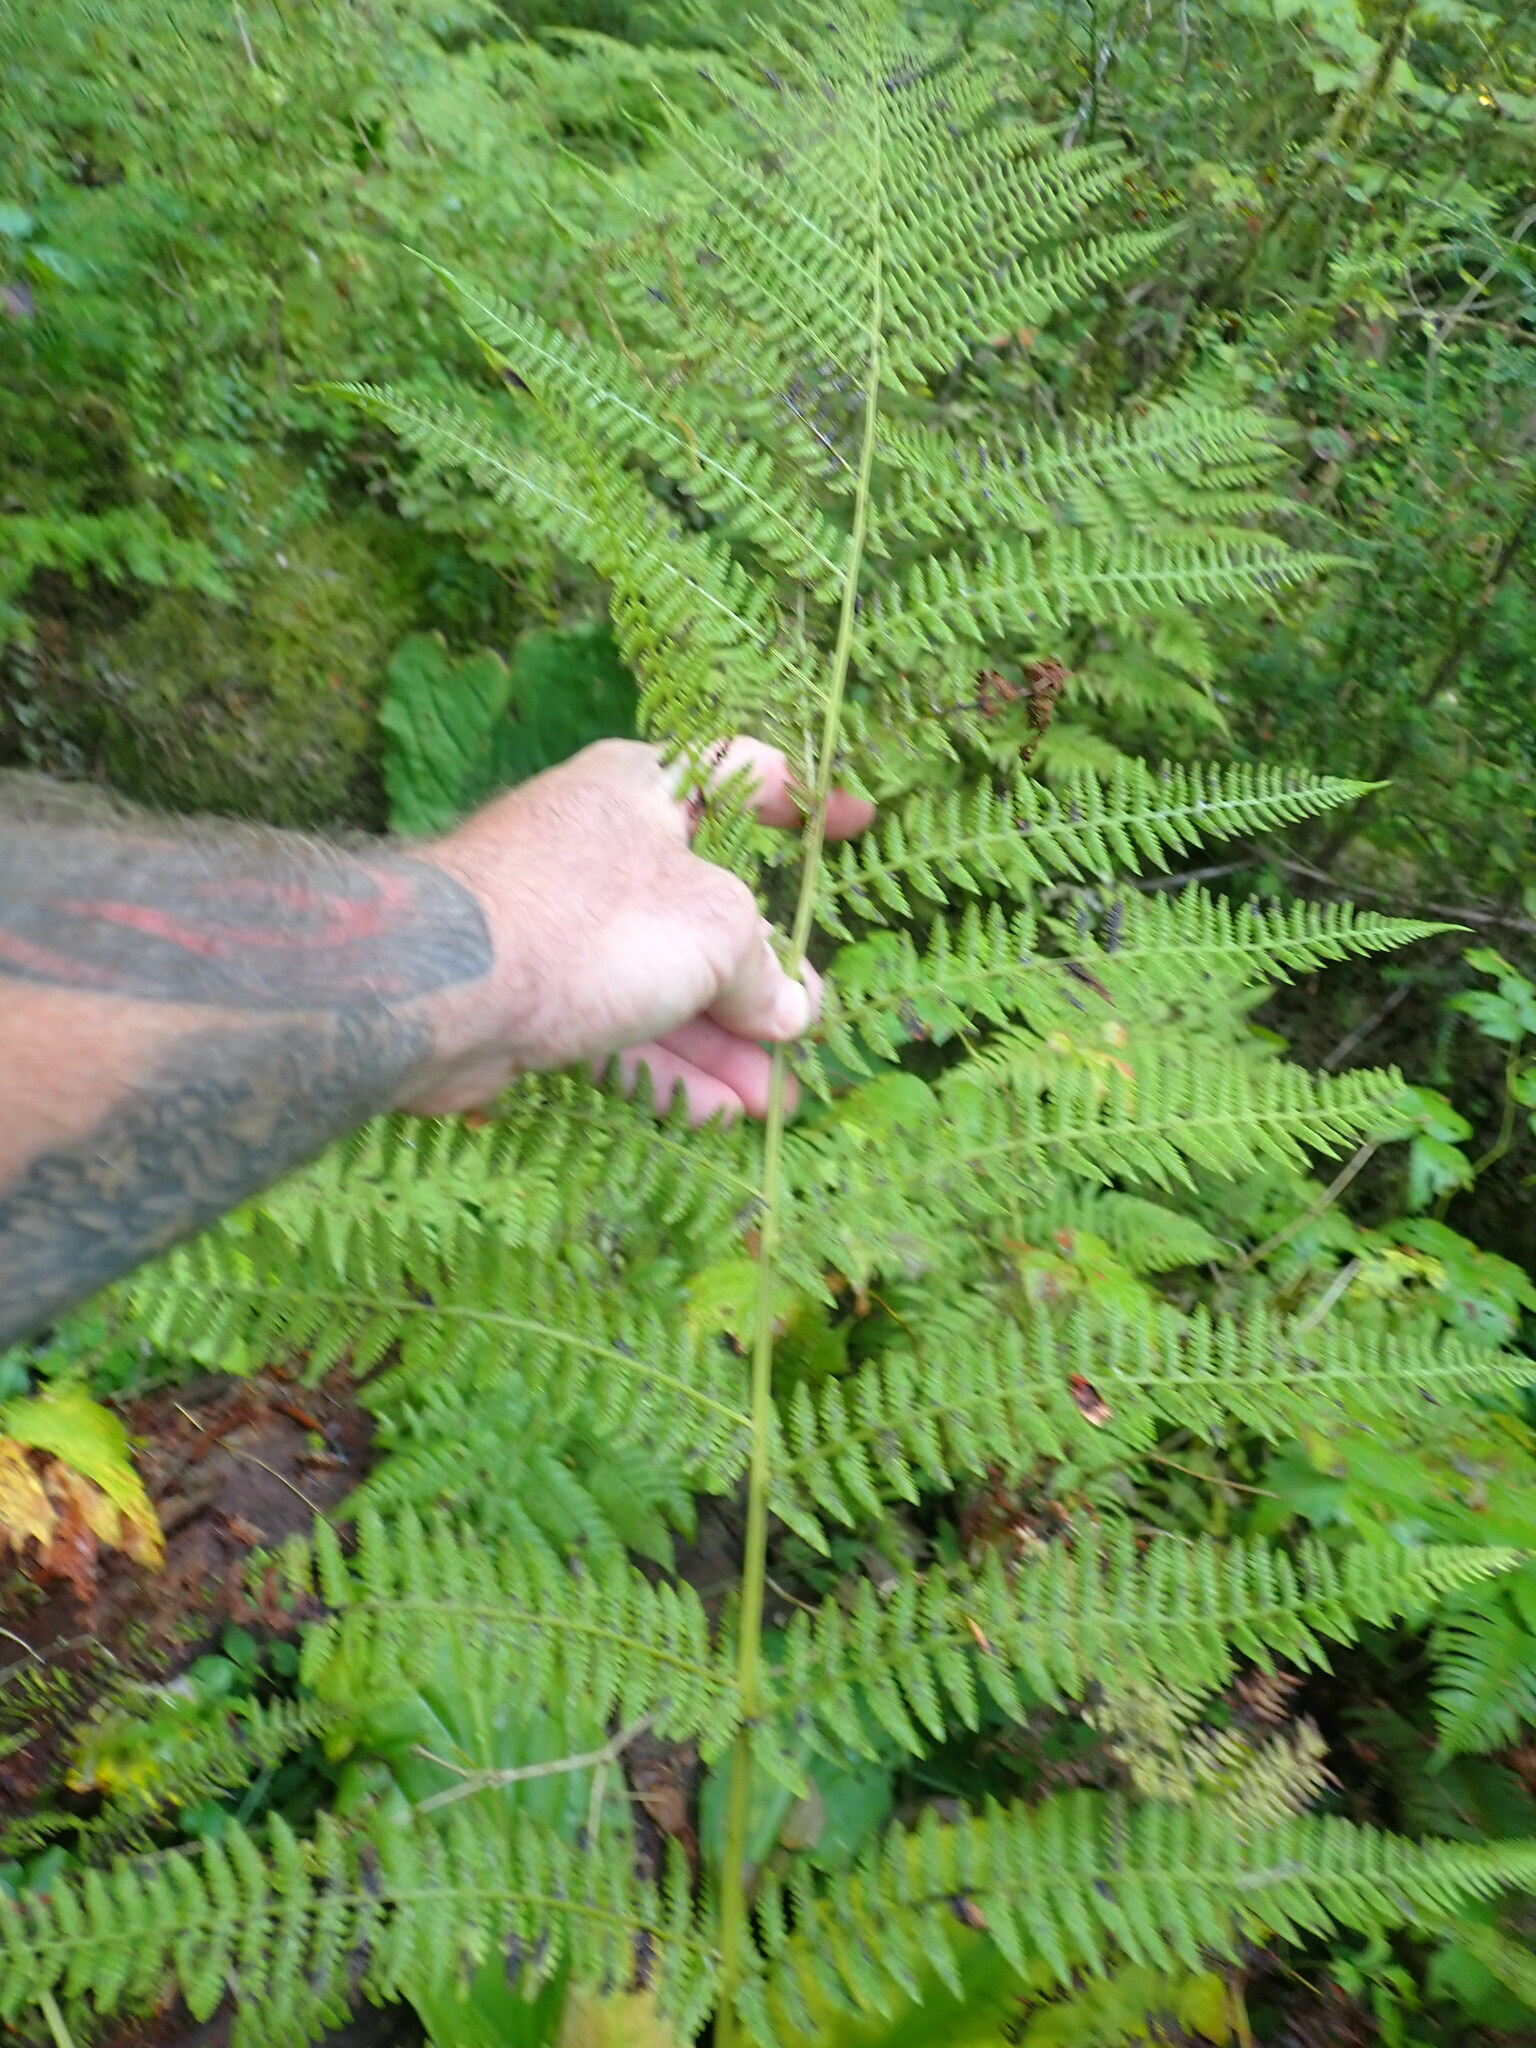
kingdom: Plantae
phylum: Tracheophyta
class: Polypodiopsida
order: Polypodiales
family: Athyriaceae
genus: Athyrium
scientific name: Athyrium filix-femina
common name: Lady fern
